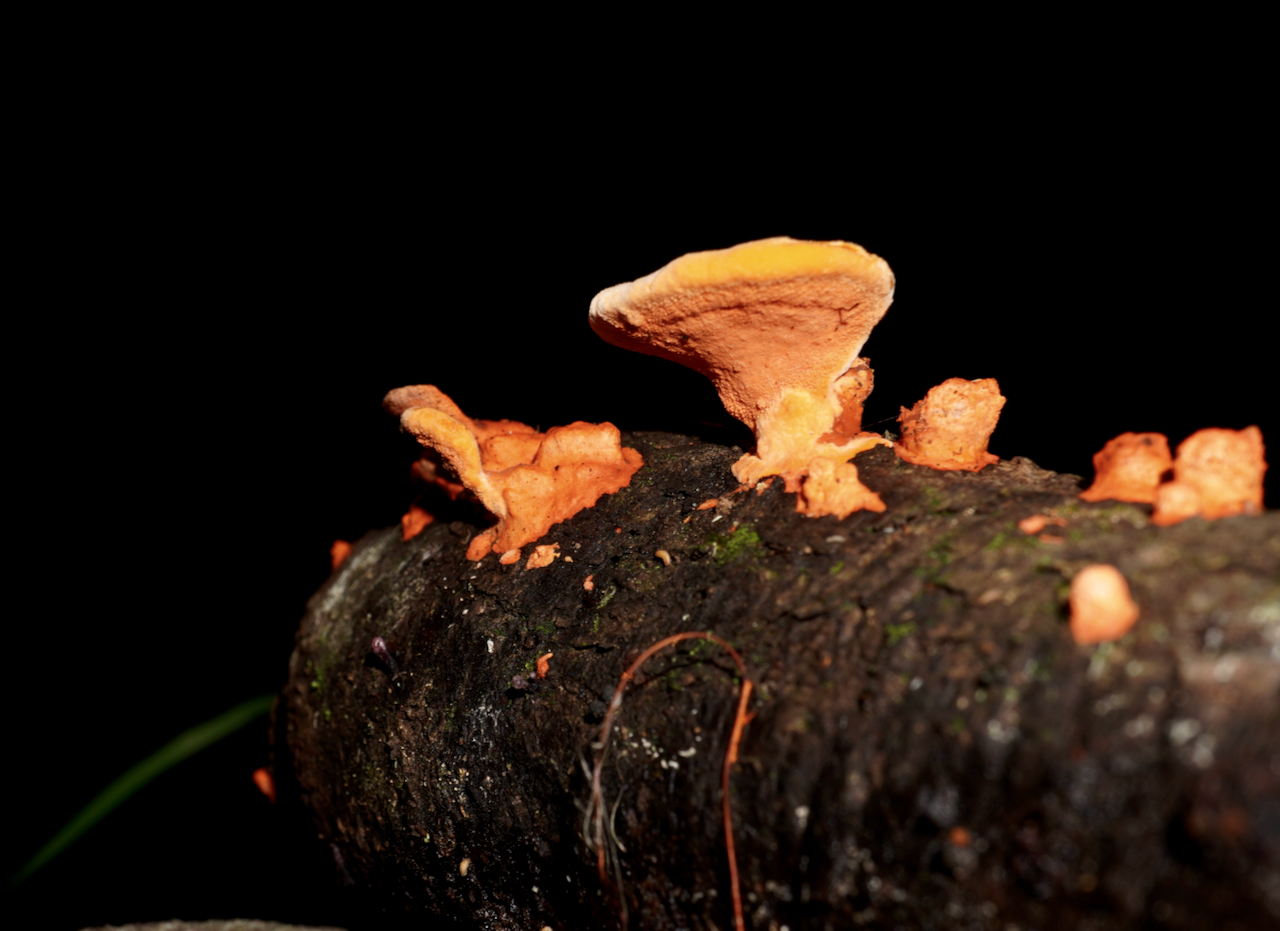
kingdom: Fungi
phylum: Basidiomycota
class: Agaricomycetes
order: Polyporales
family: Polyporaceae
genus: Trametes
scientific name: Trametes coccinea
